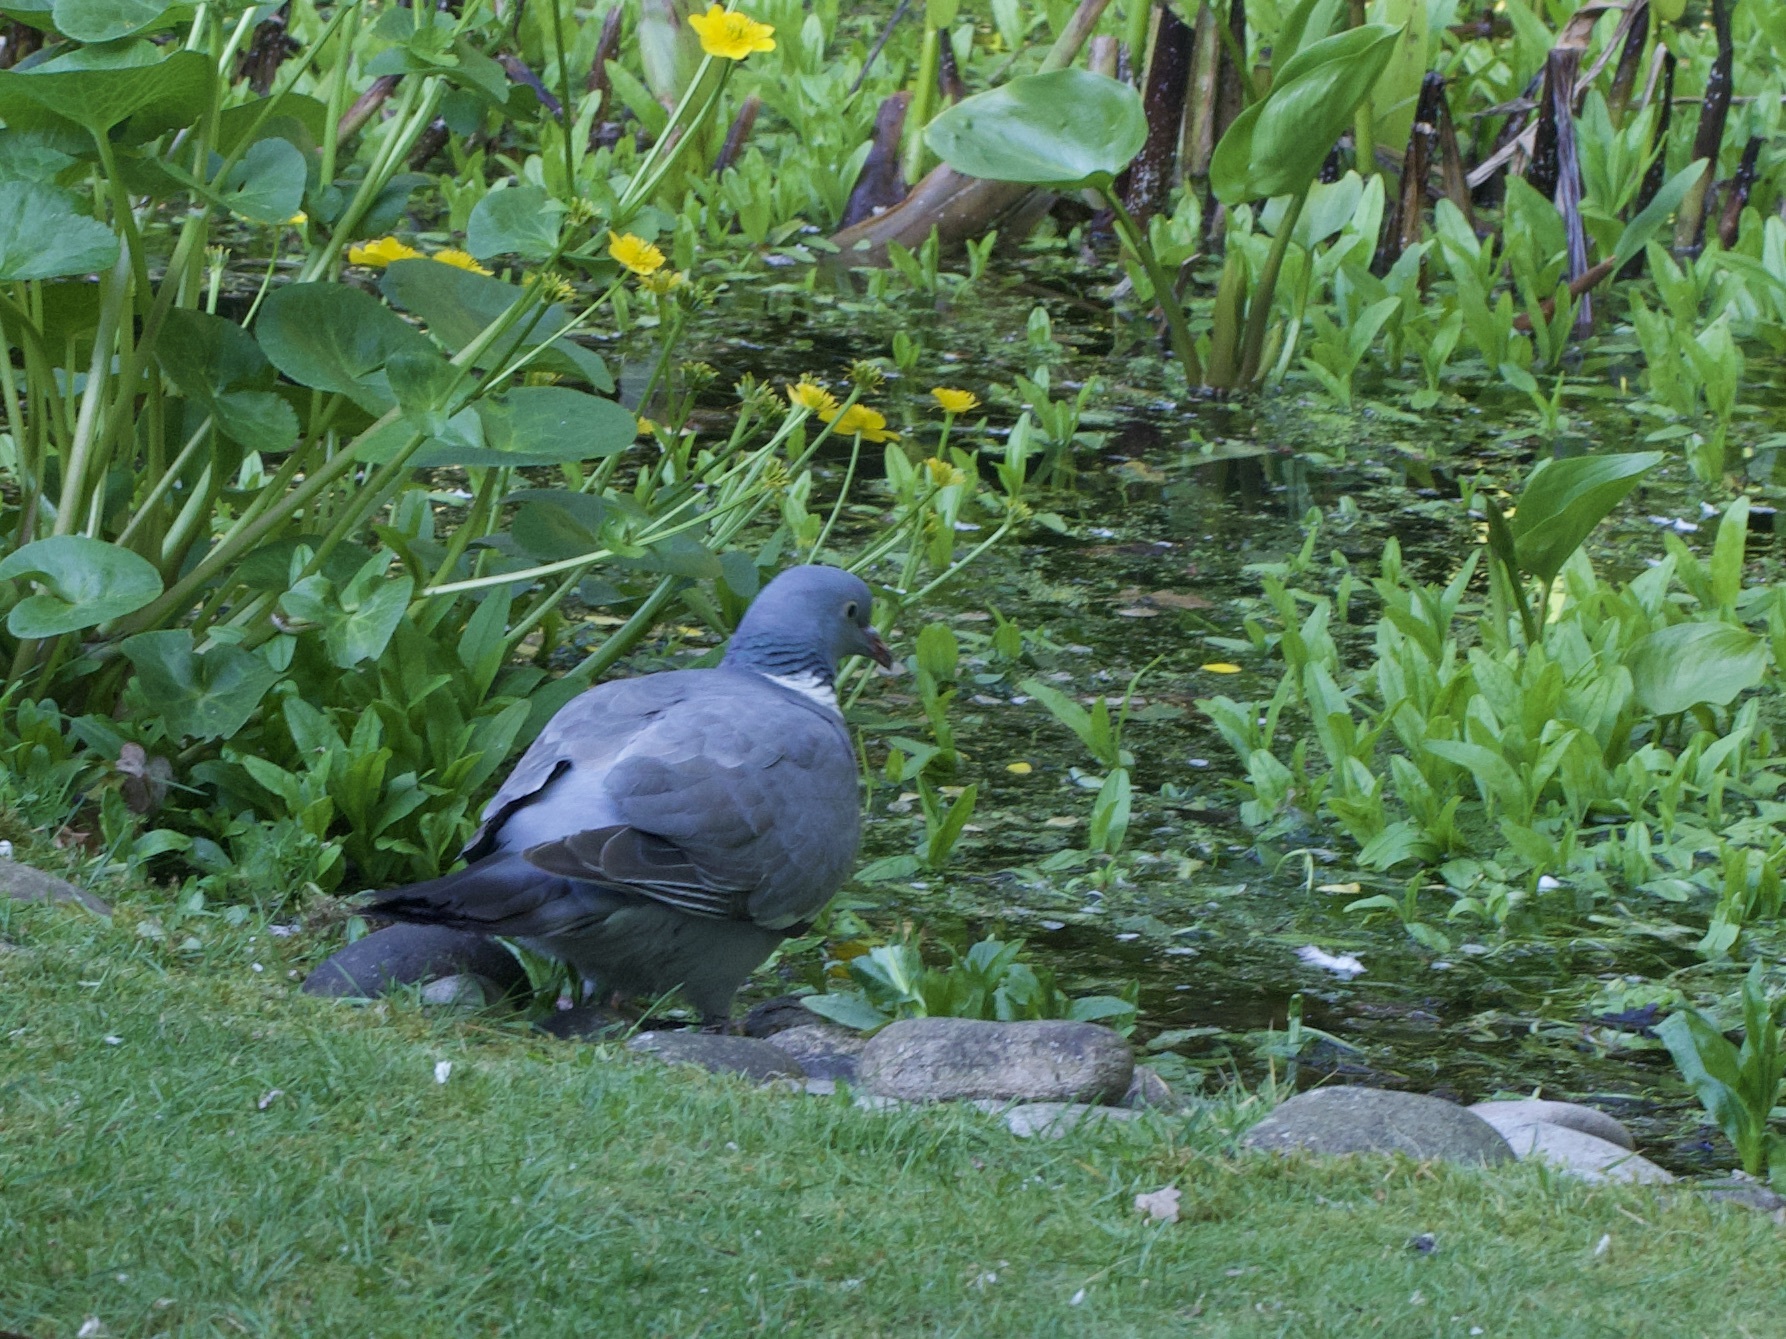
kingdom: Animalia
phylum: Chordata
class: Aves
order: Columbiformes
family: Columbidae
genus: Columba
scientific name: Columba palumbus
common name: Common wood pigeon
